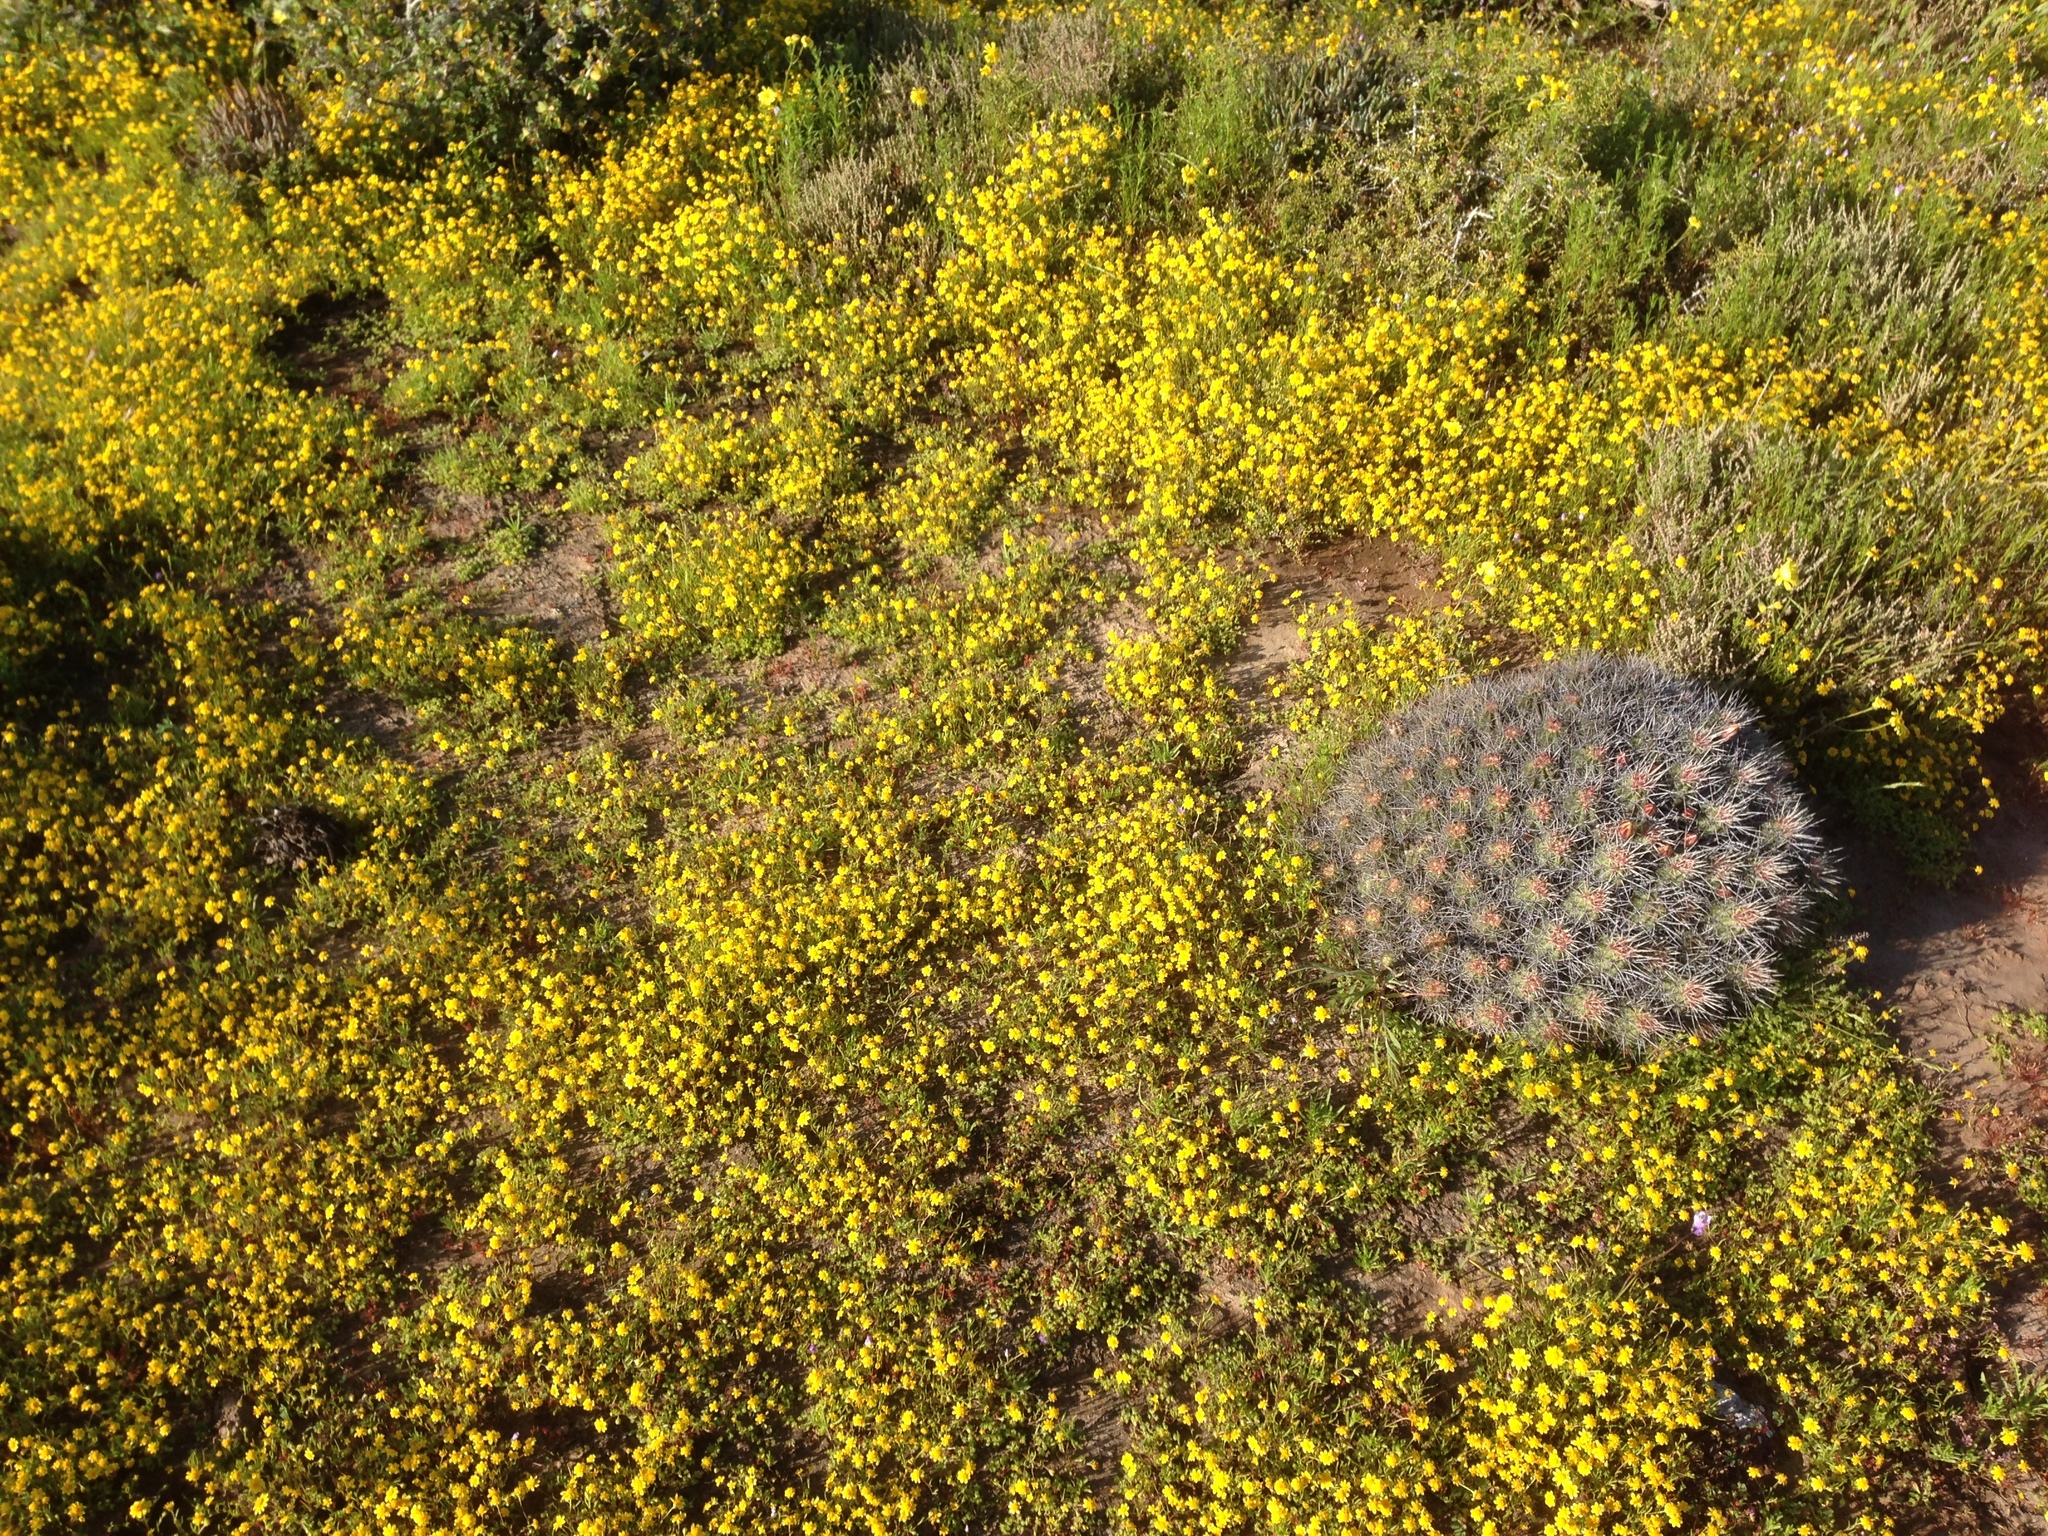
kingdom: Plantae
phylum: Tracheophyta
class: Magnoliopsida
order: Caryophyllales
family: Cactaceae
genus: Echinocereus
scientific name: Echinocereus maritimus
